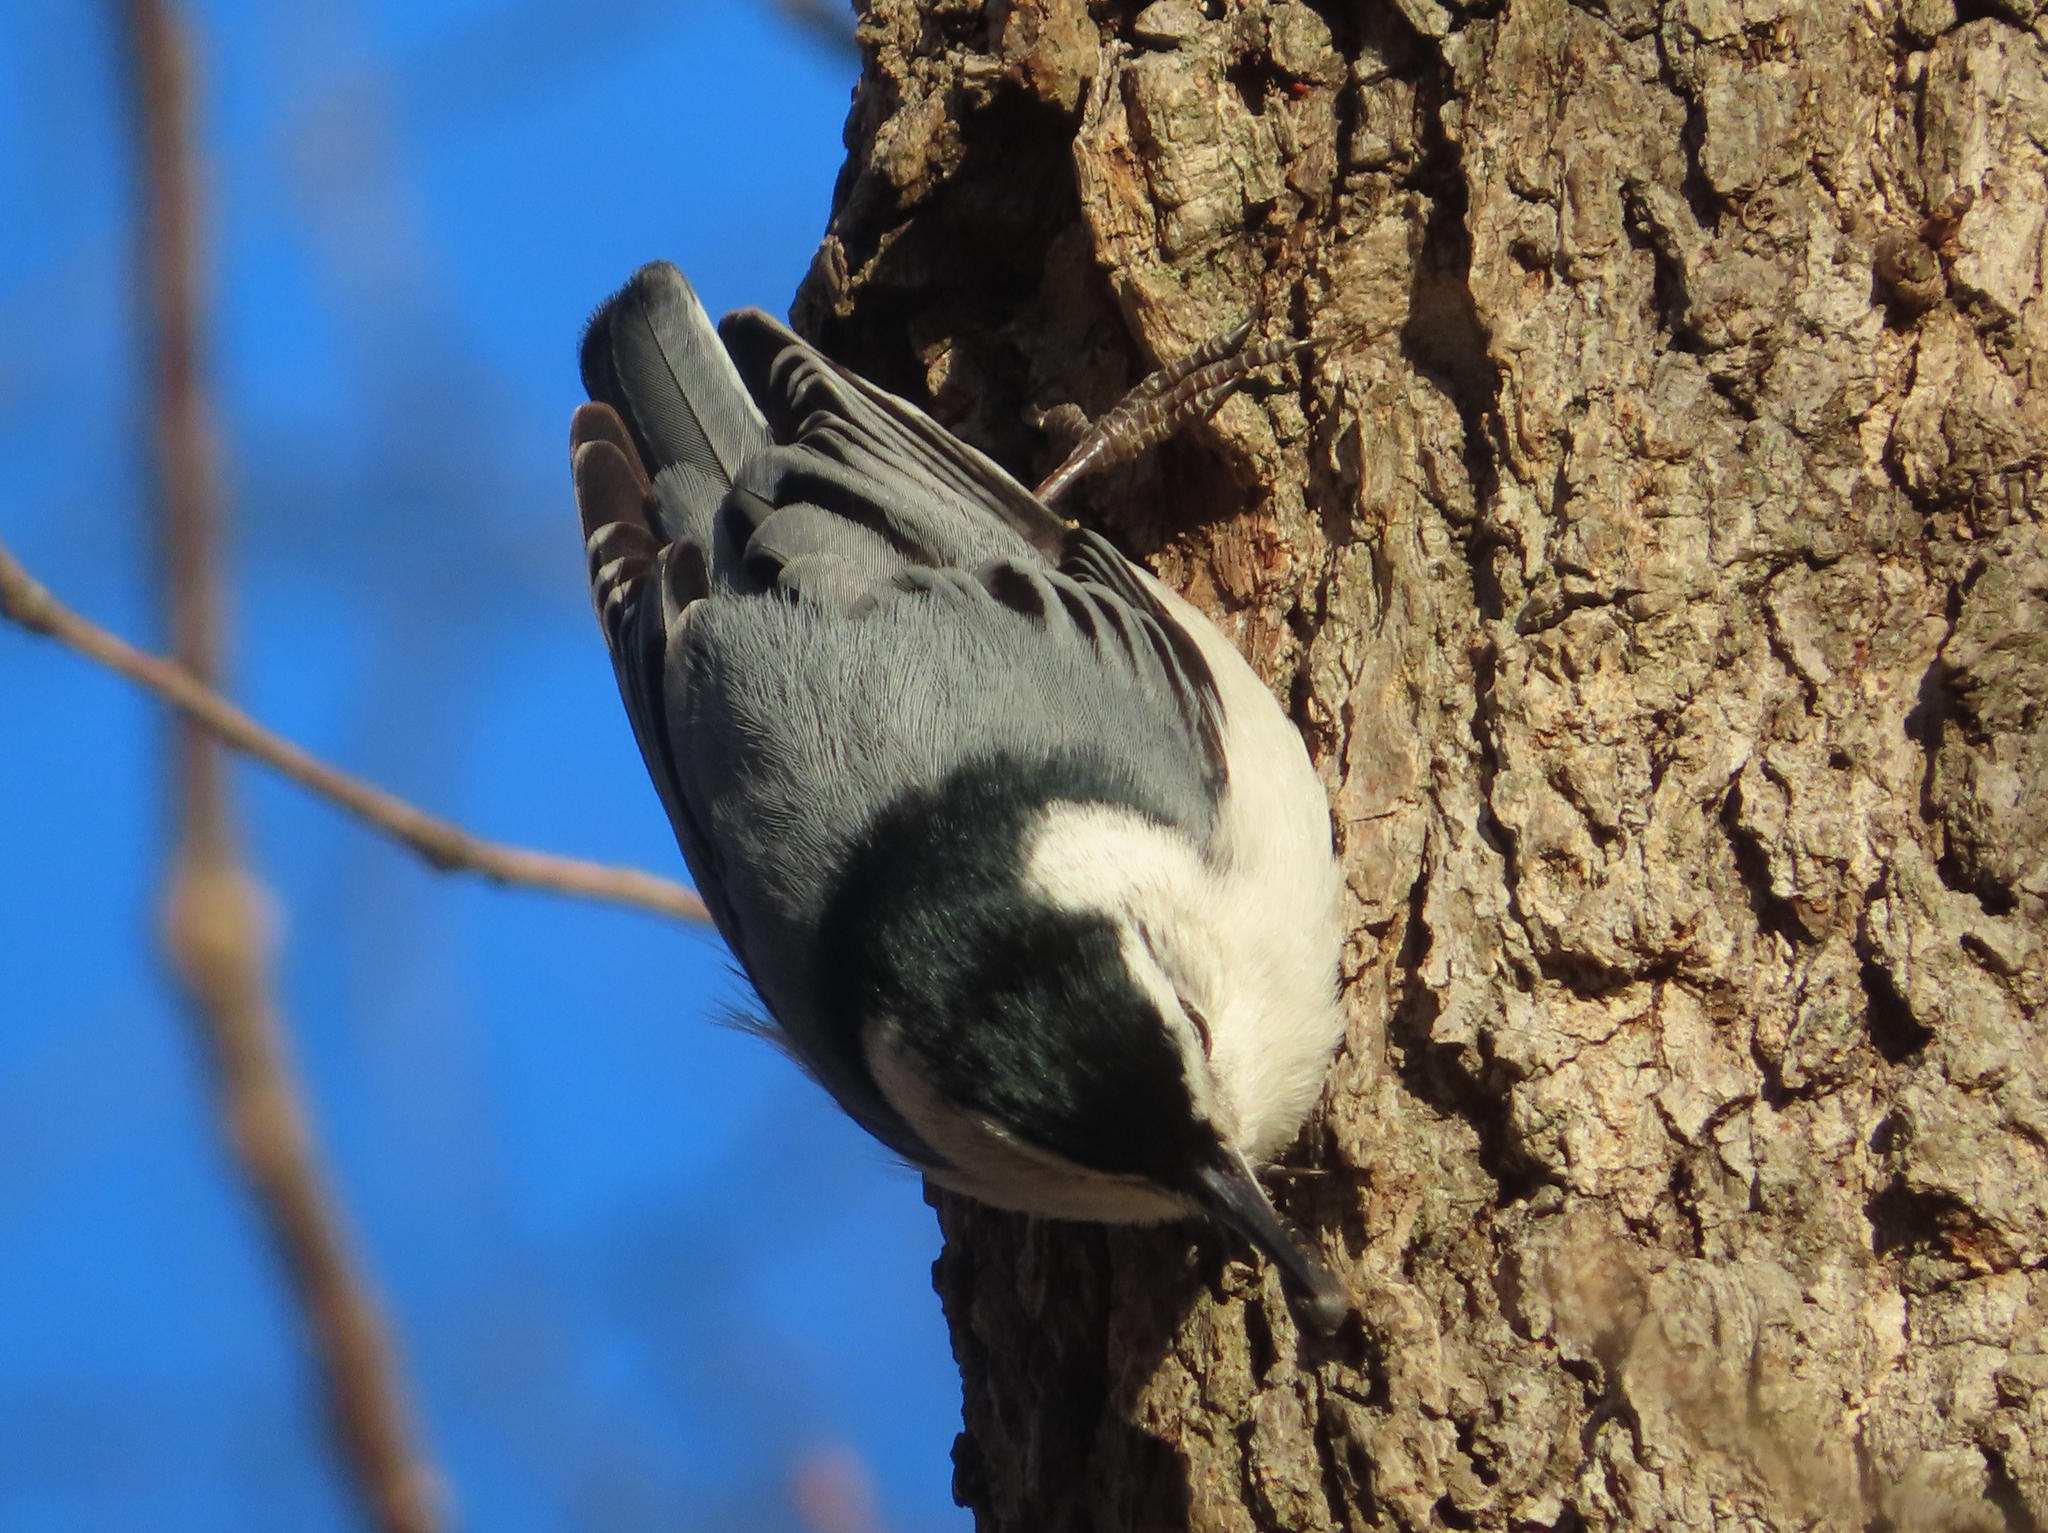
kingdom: Animalia
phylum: Chordata
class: Aves
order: Passeriformes
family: Sittidae
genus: Sitta
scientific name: Sitta carolinensis
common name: White-breasted nuthatch
